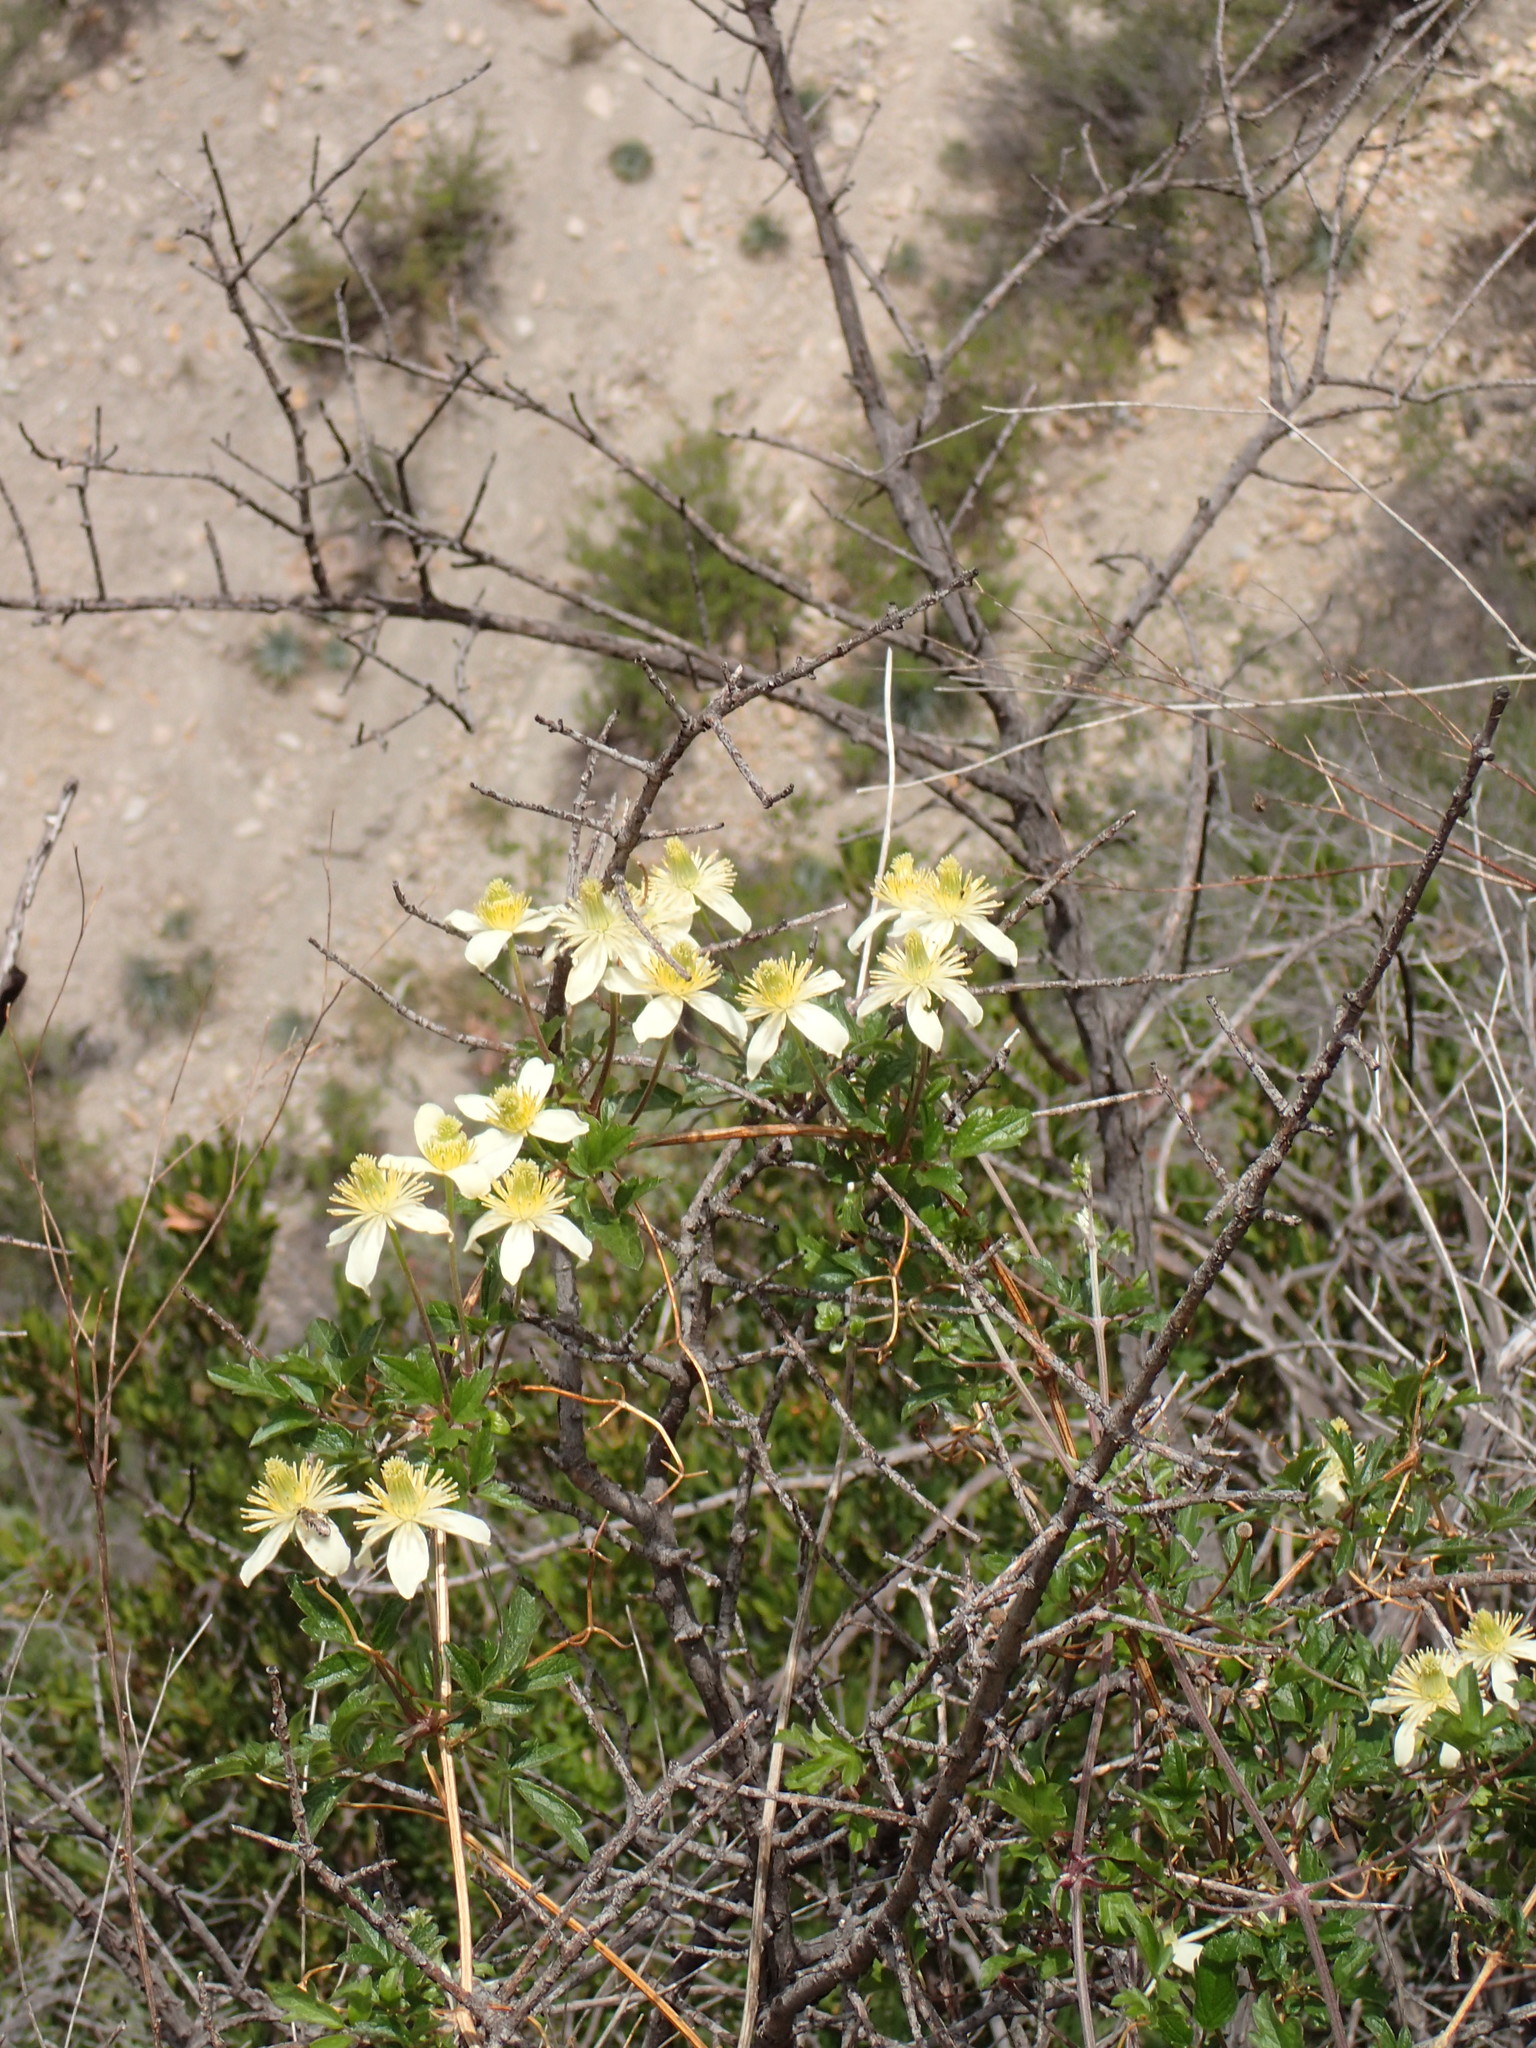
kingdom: Plantae
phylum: Tracheophyta
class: Magnoliopsida
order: Ranunculales
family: Ranunculaceae
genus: Clematis
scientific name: Clematis lasiantha
